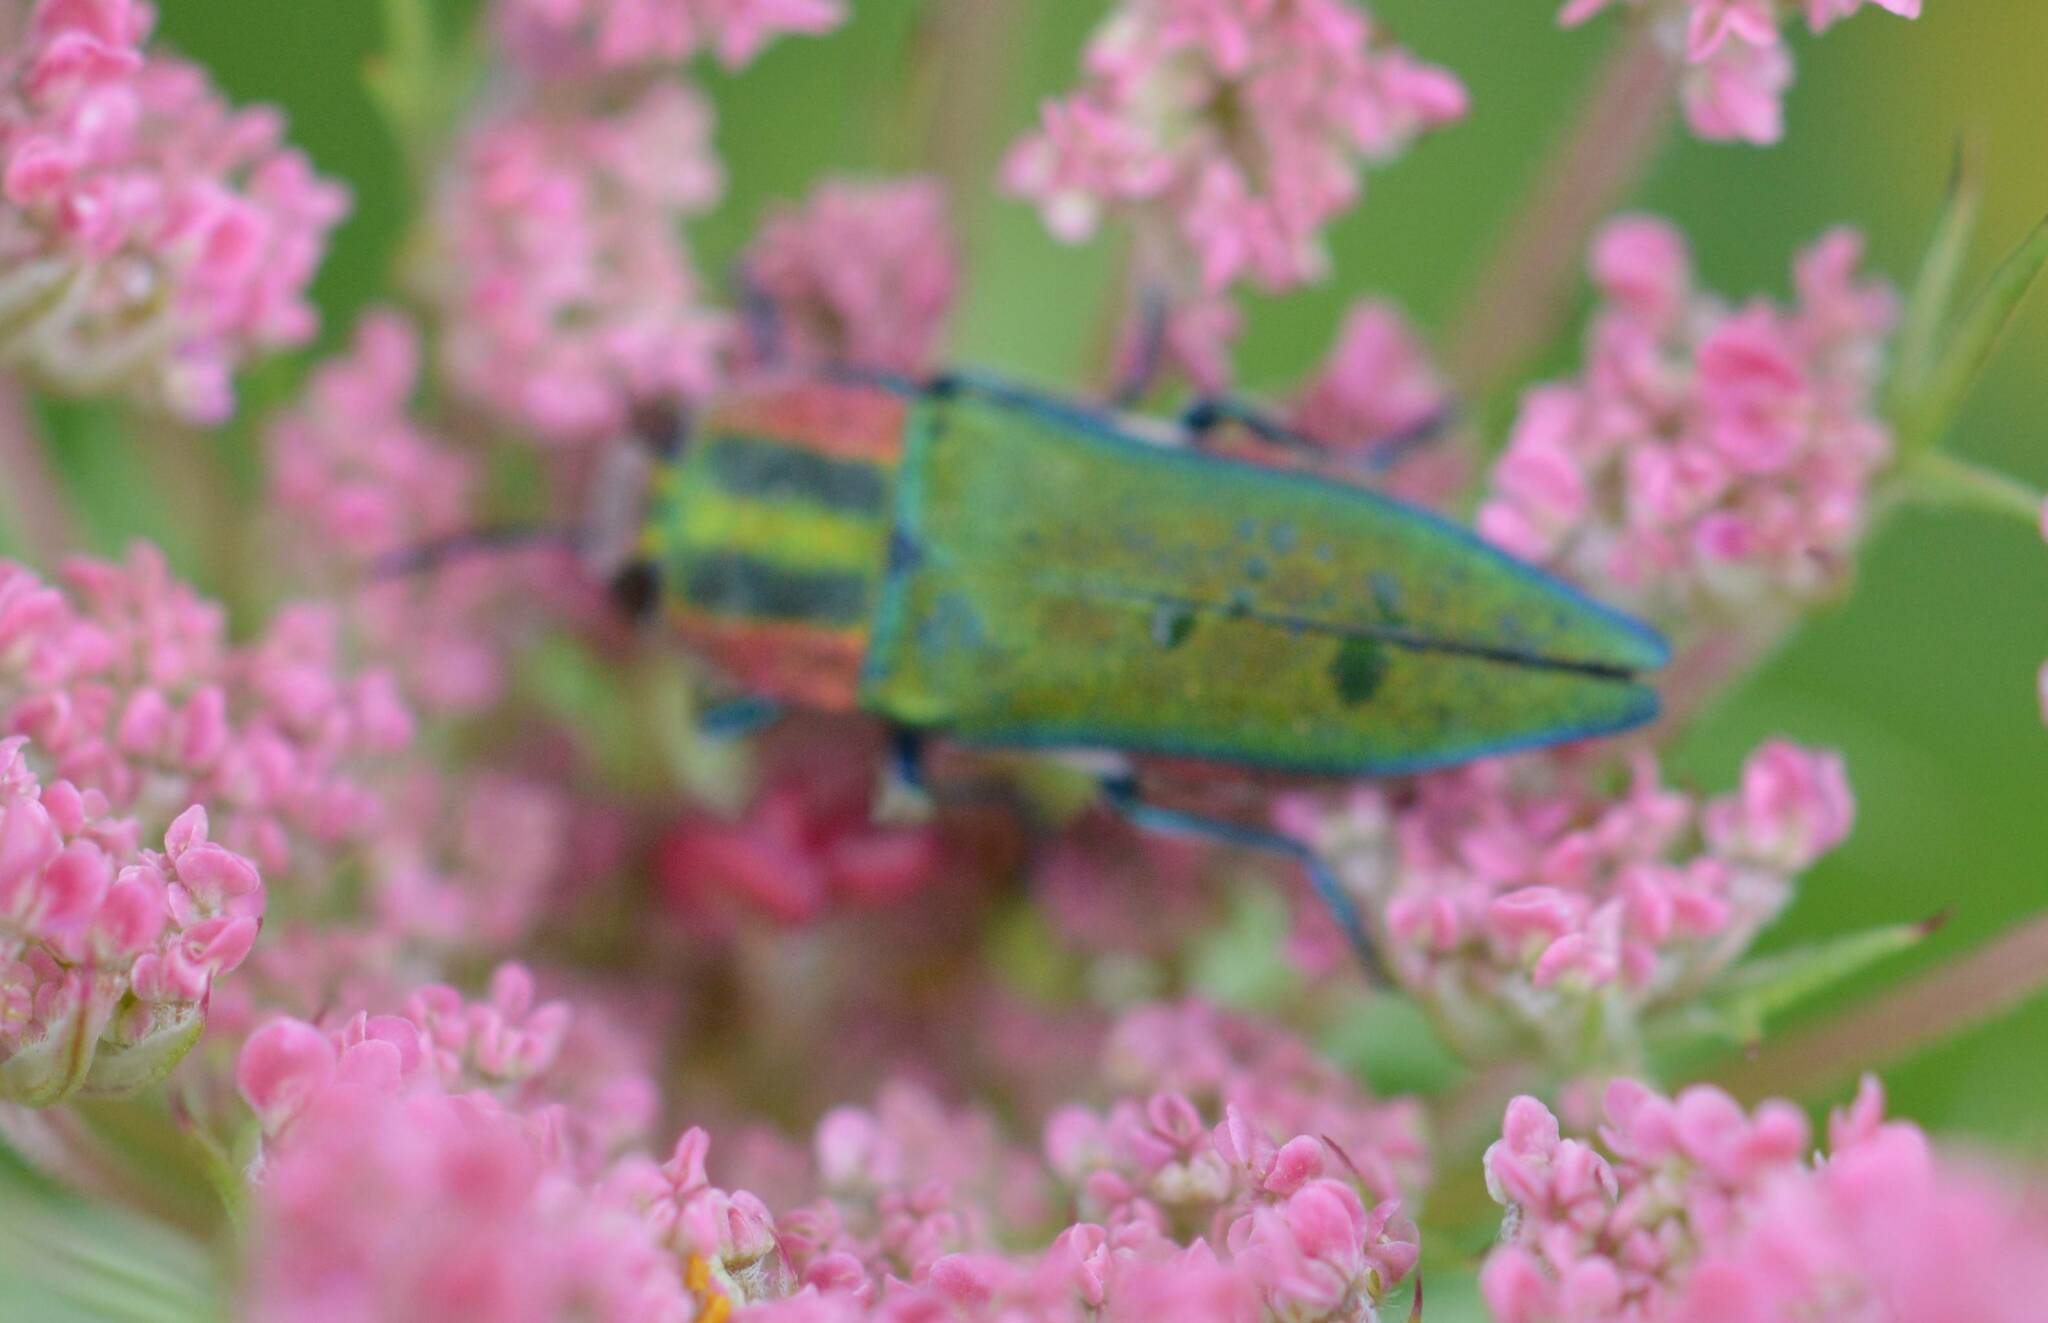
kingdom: Animalia
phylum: Arthropoda
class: Insecta
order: Coleoptera
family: Buprestidae
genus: Anthaxia
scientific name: Anthaxia hungarica
